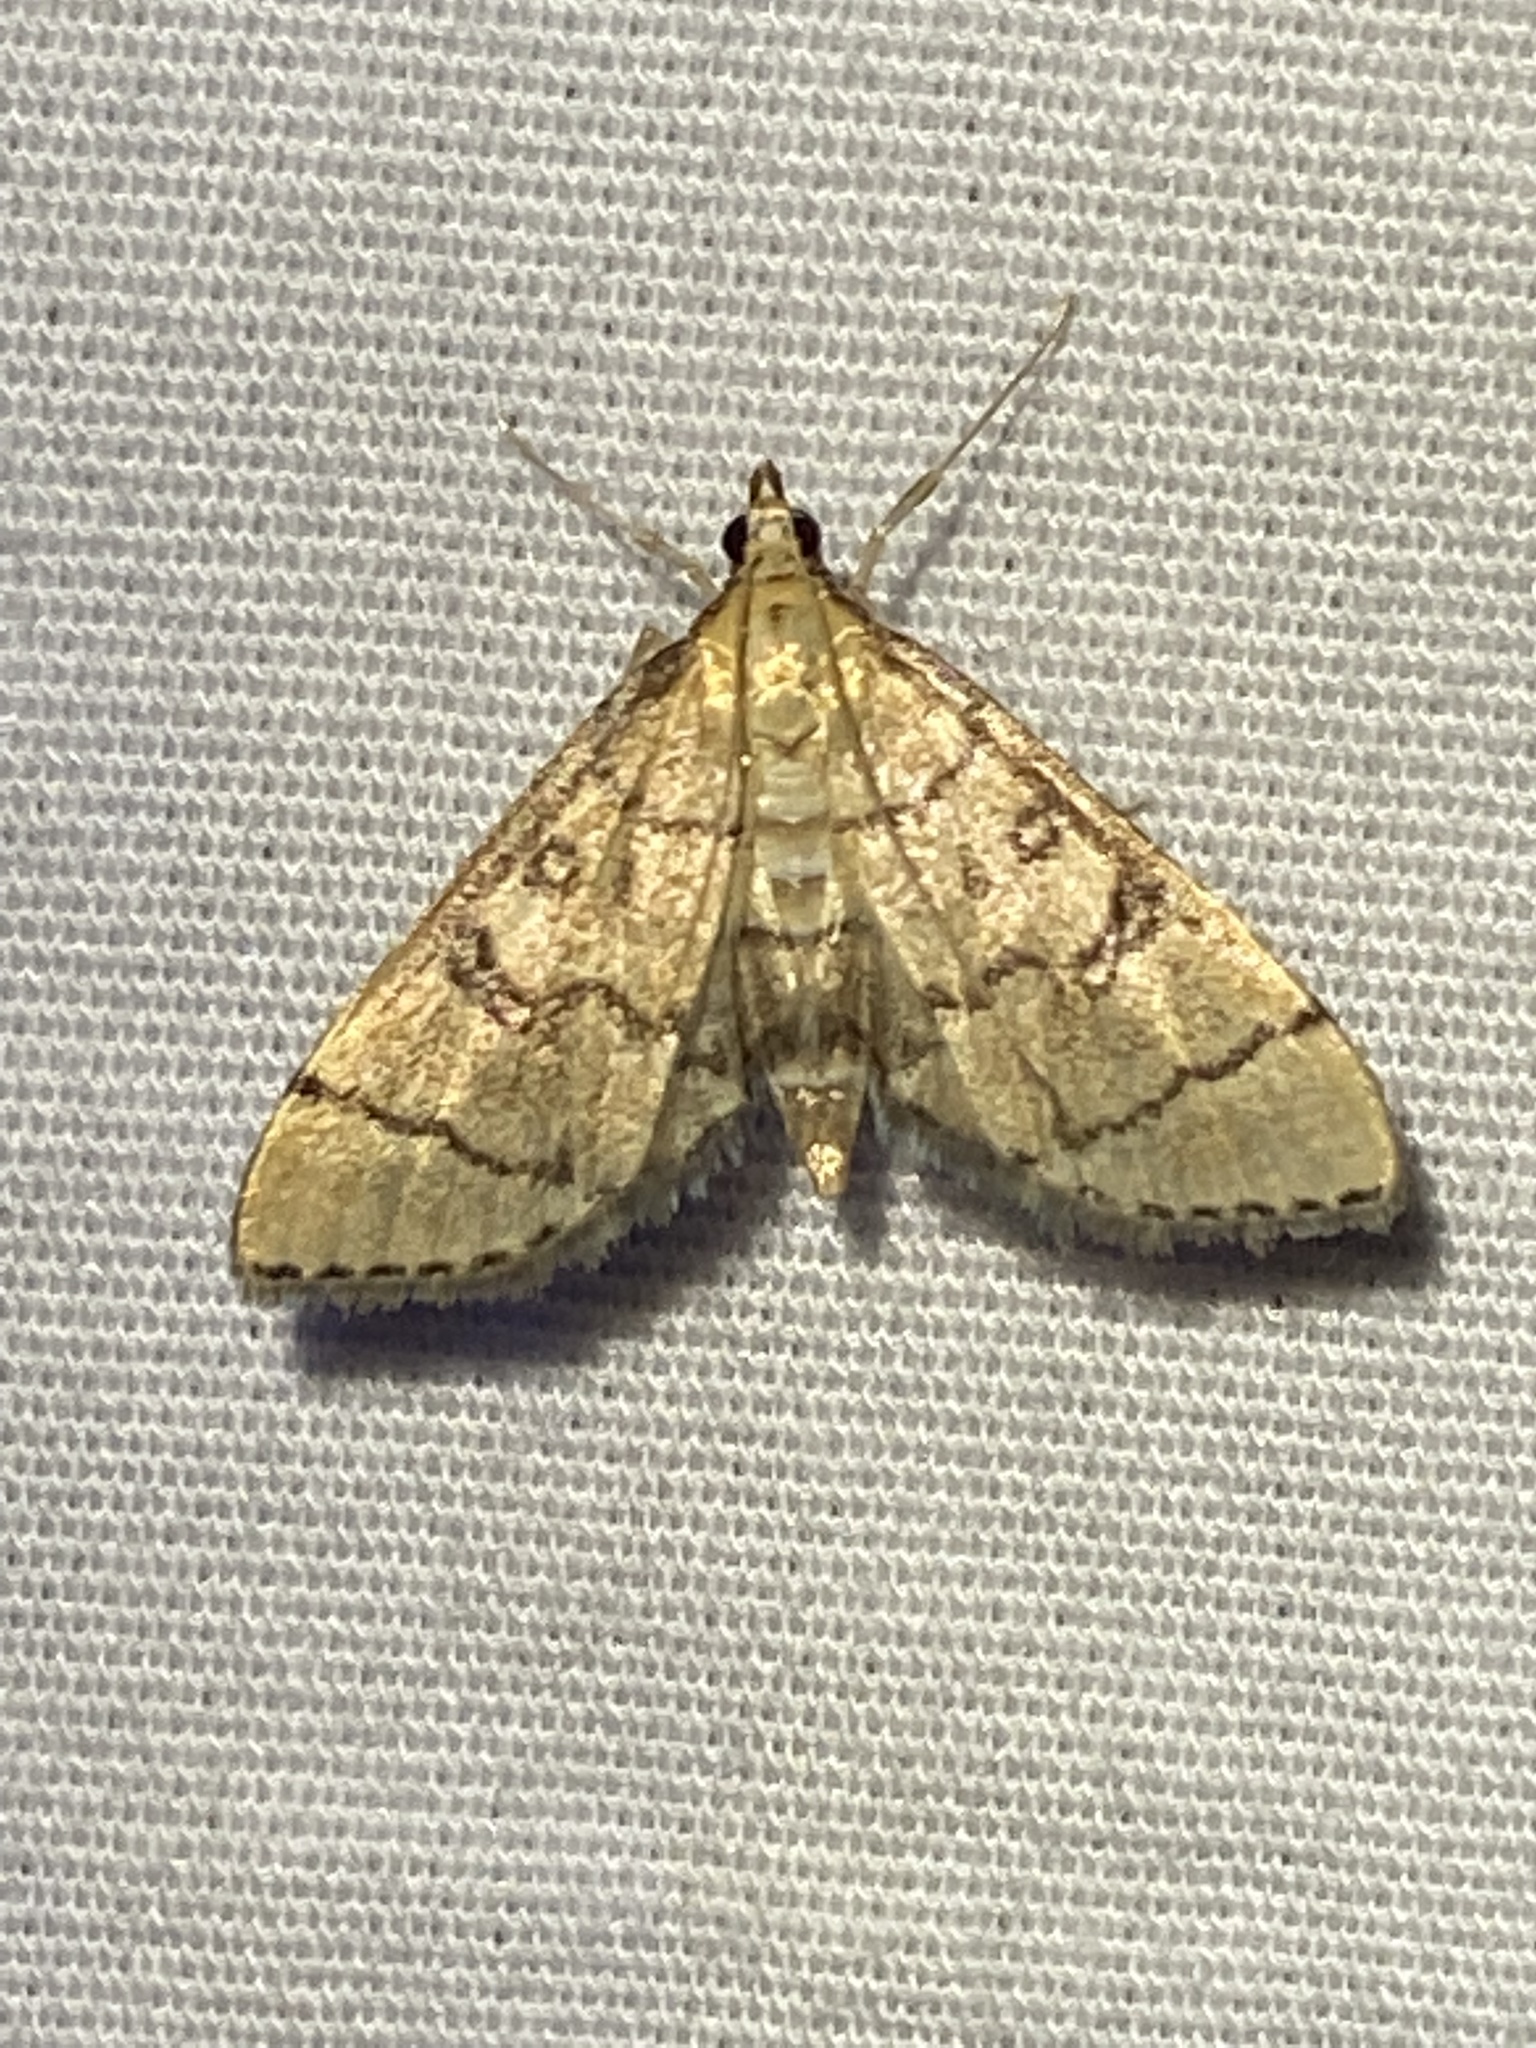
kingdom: Animalia
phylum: Arthropoda
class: Insecta
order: Lepidoptera
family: Crambidae
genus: Lamprosema
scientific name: Lamprosema Blepharomastix ranalis
